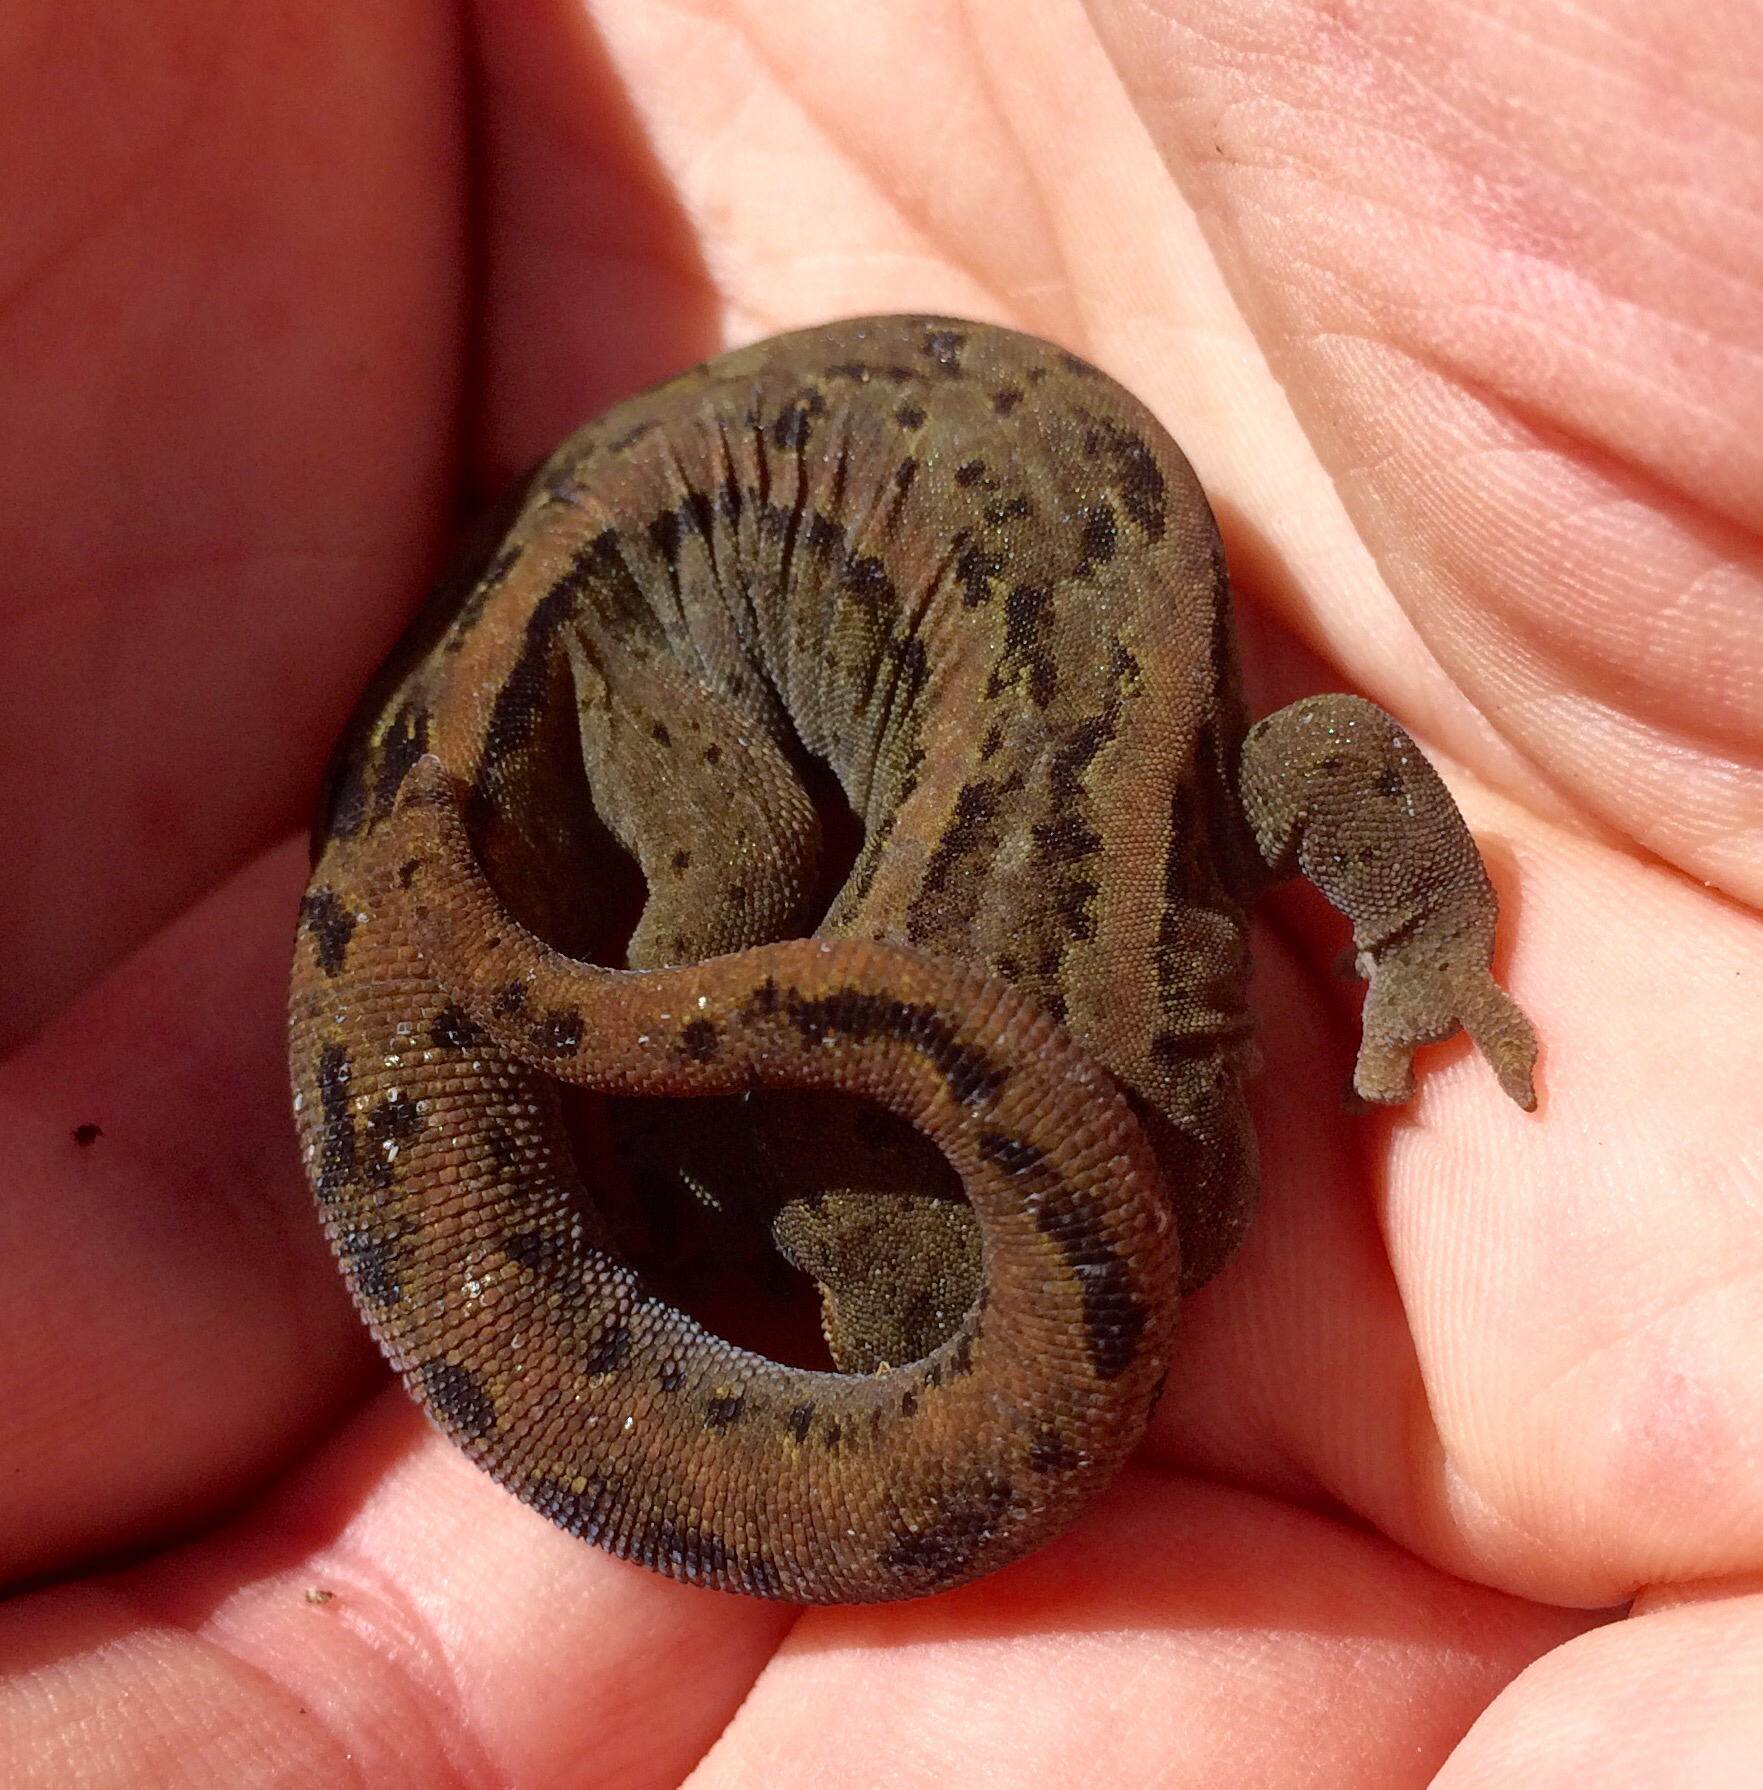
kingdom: Animalia
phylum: Chordata
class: Squamata
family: Diplodactylidae
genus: Woodworthia
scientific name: Woodworthia maculata
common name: Raukawa gecko
